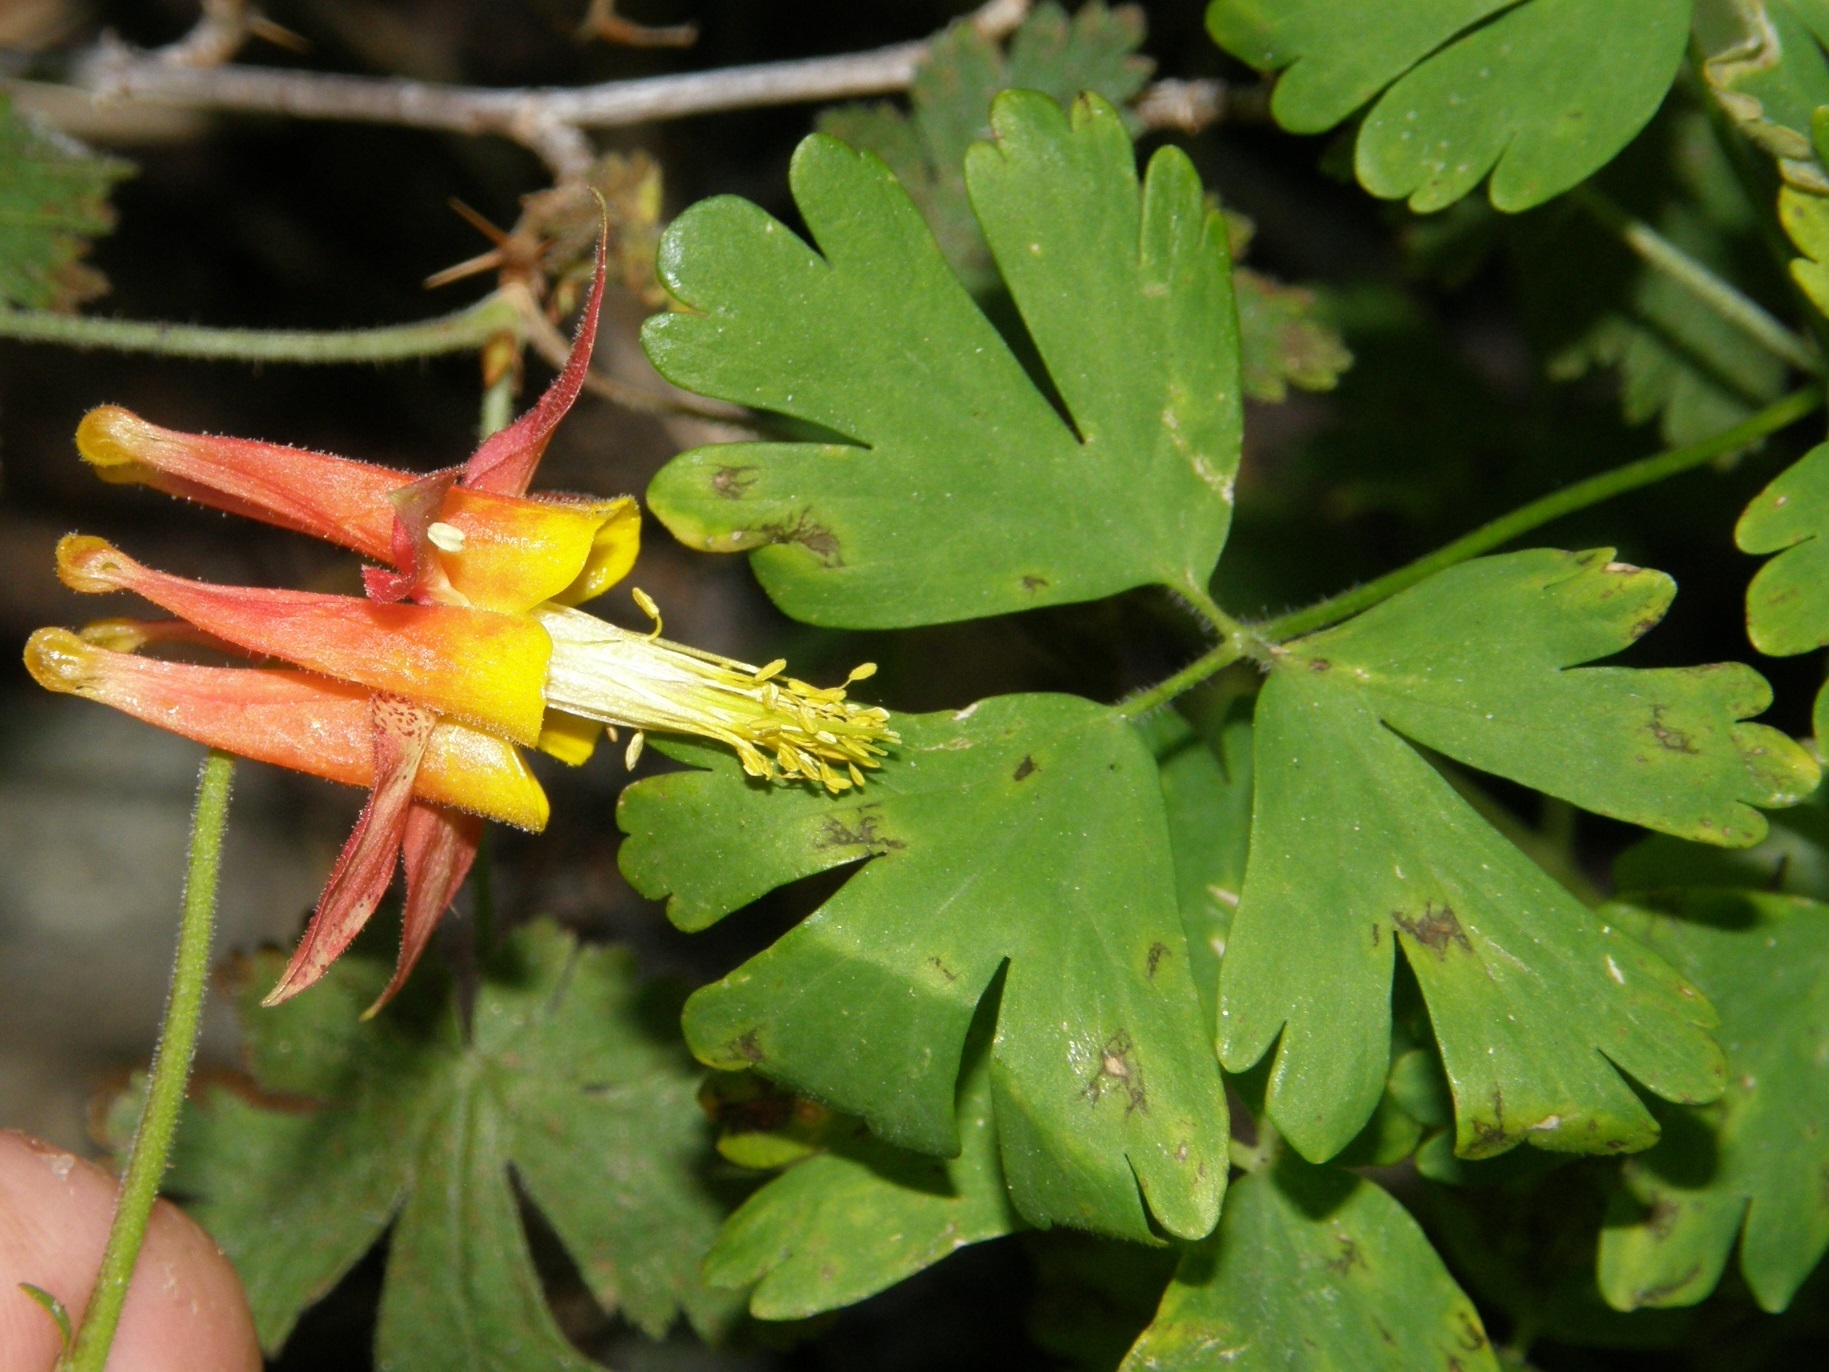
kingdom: Plantae
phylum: Tracheophyta
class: Magnoliopsida
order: Ranunculales
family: Ranunculaceae
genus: Aquilegia
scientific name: Aquilegia formosa
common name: Sitka columbine
